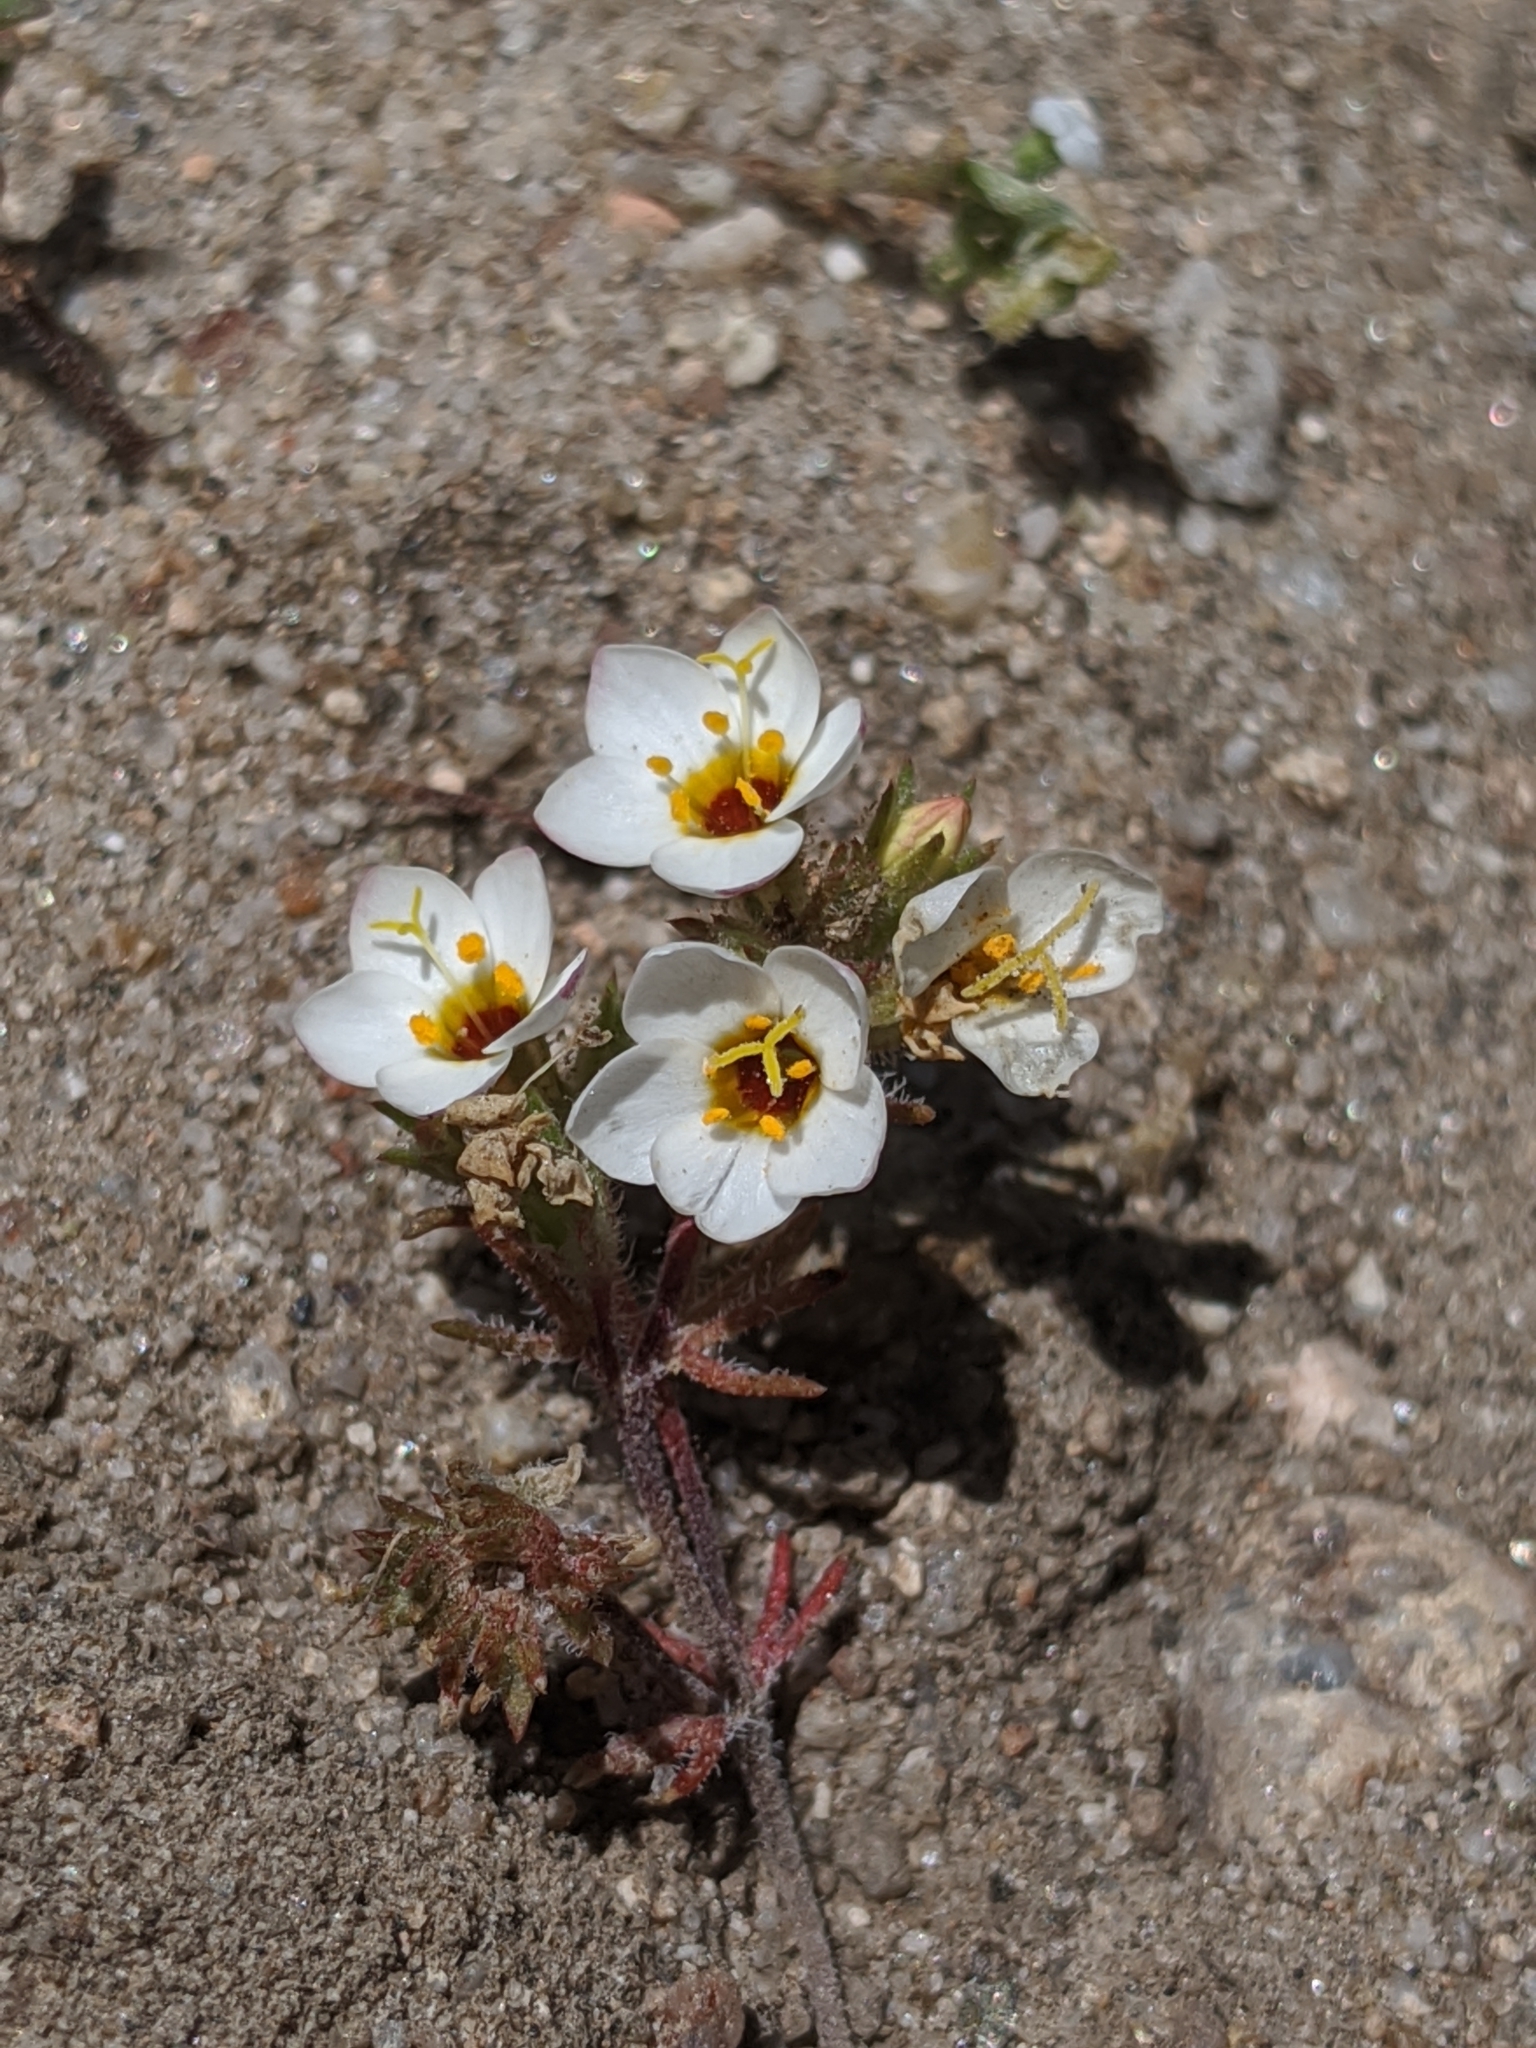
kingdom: Plantae
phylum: Tracheophyta
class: Magnoliopsida
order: Ericales
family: Polemoniaceae
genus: Leptosiphon
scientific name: Leptosiphon lemmonii
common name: Lemmon's linanthus
